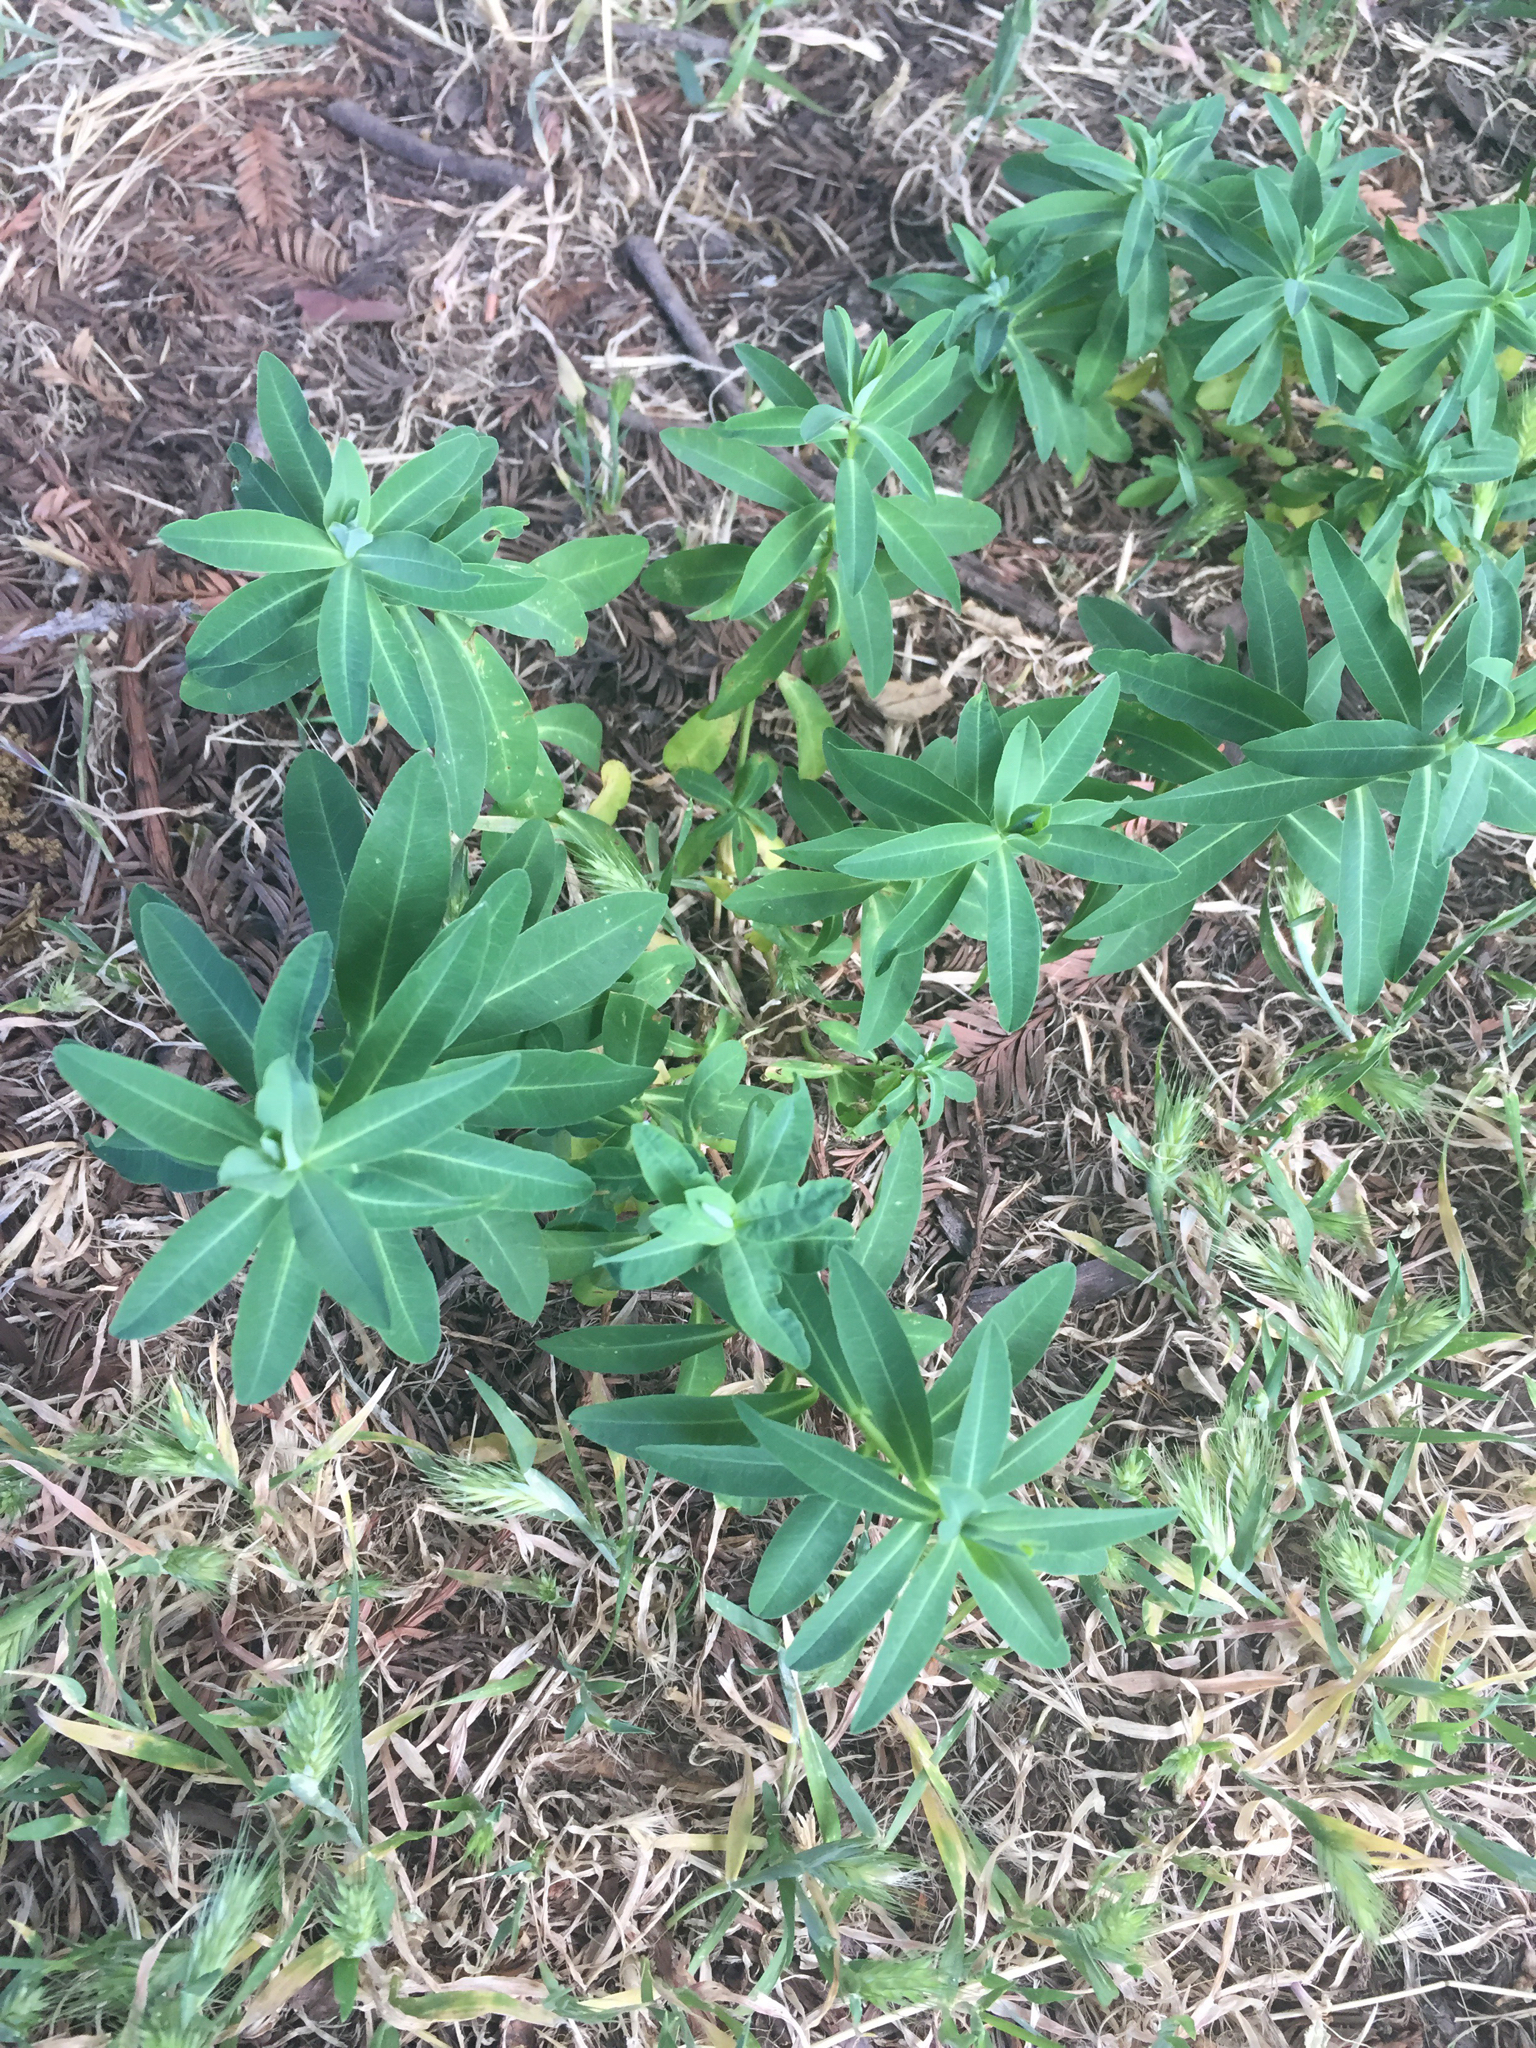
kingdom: Plantae
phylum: Tracheophyta
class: Magnoliopsida
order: Malpighiales
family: Euphorbiaceae
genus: Euphorbia
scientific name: Euphorbia oblongata
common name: Balkan spurge
